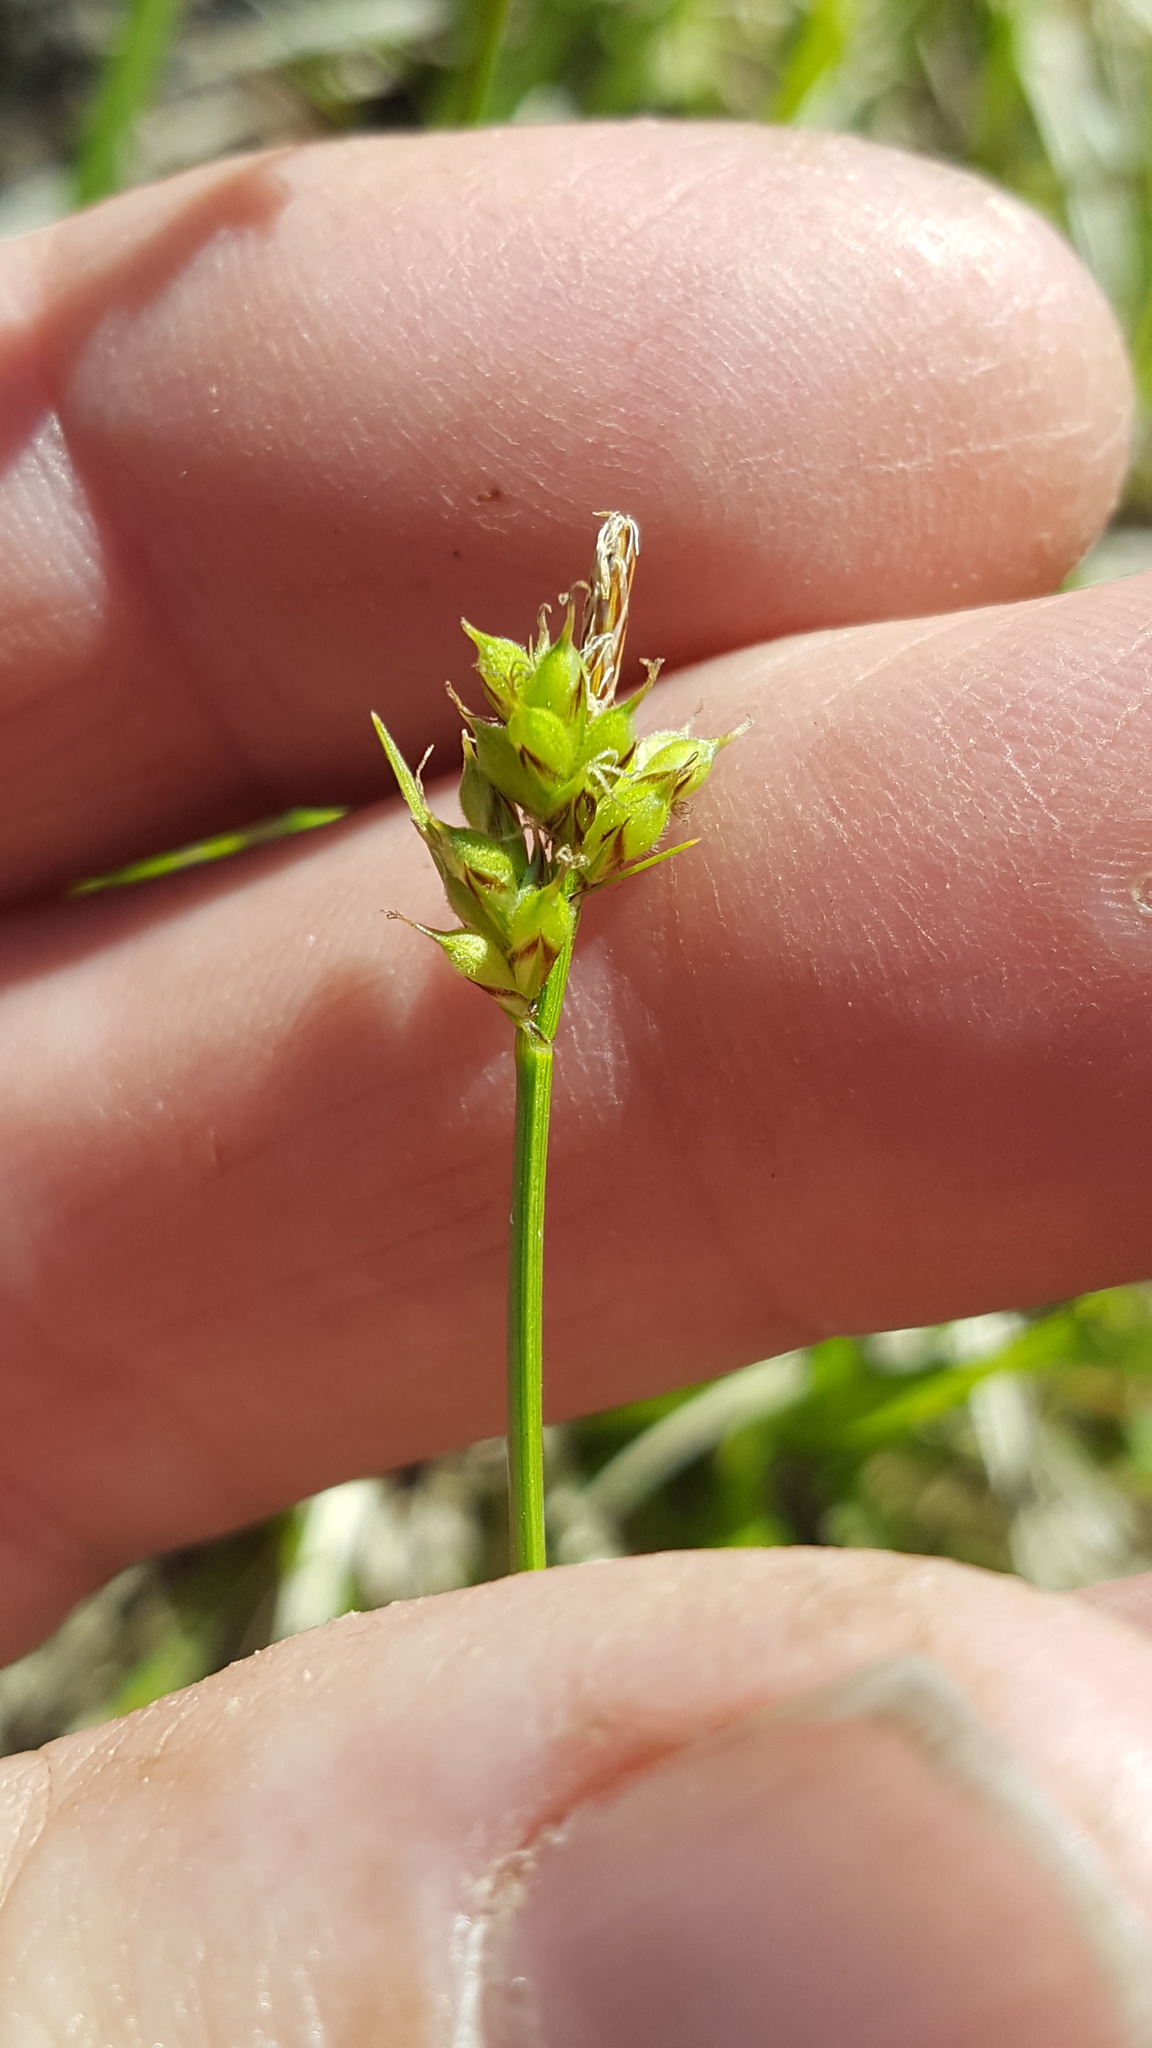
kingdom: Plantae
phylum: Tracheophyta
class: Liliopsida
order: Poales
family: Cyperaceae
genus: Carex
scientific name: Carex peckii
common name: Peck's oak sedge
